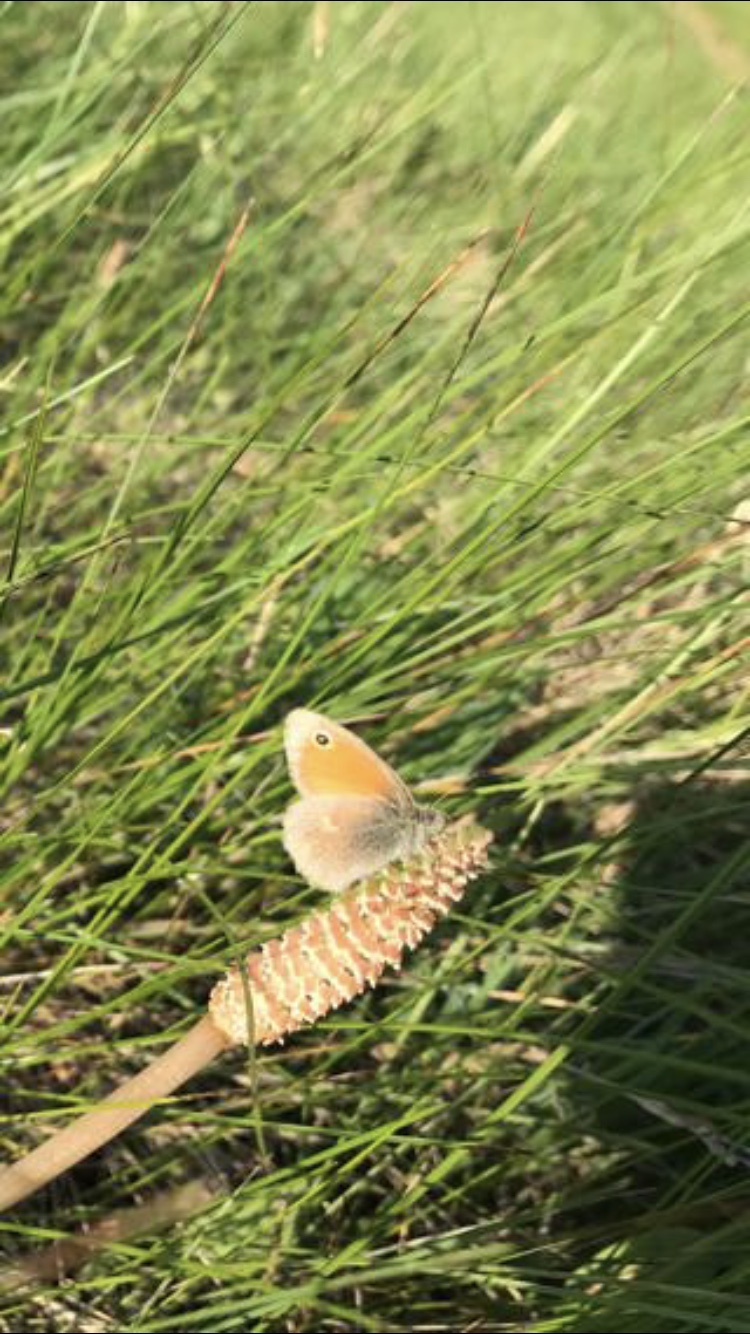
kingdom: Animalia
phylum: Arthropoda
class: Insecta
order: Lepidoptera
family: Nymphalidae
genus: Coenonympha
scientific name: Coenonympha pamphilus
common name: Small heath
